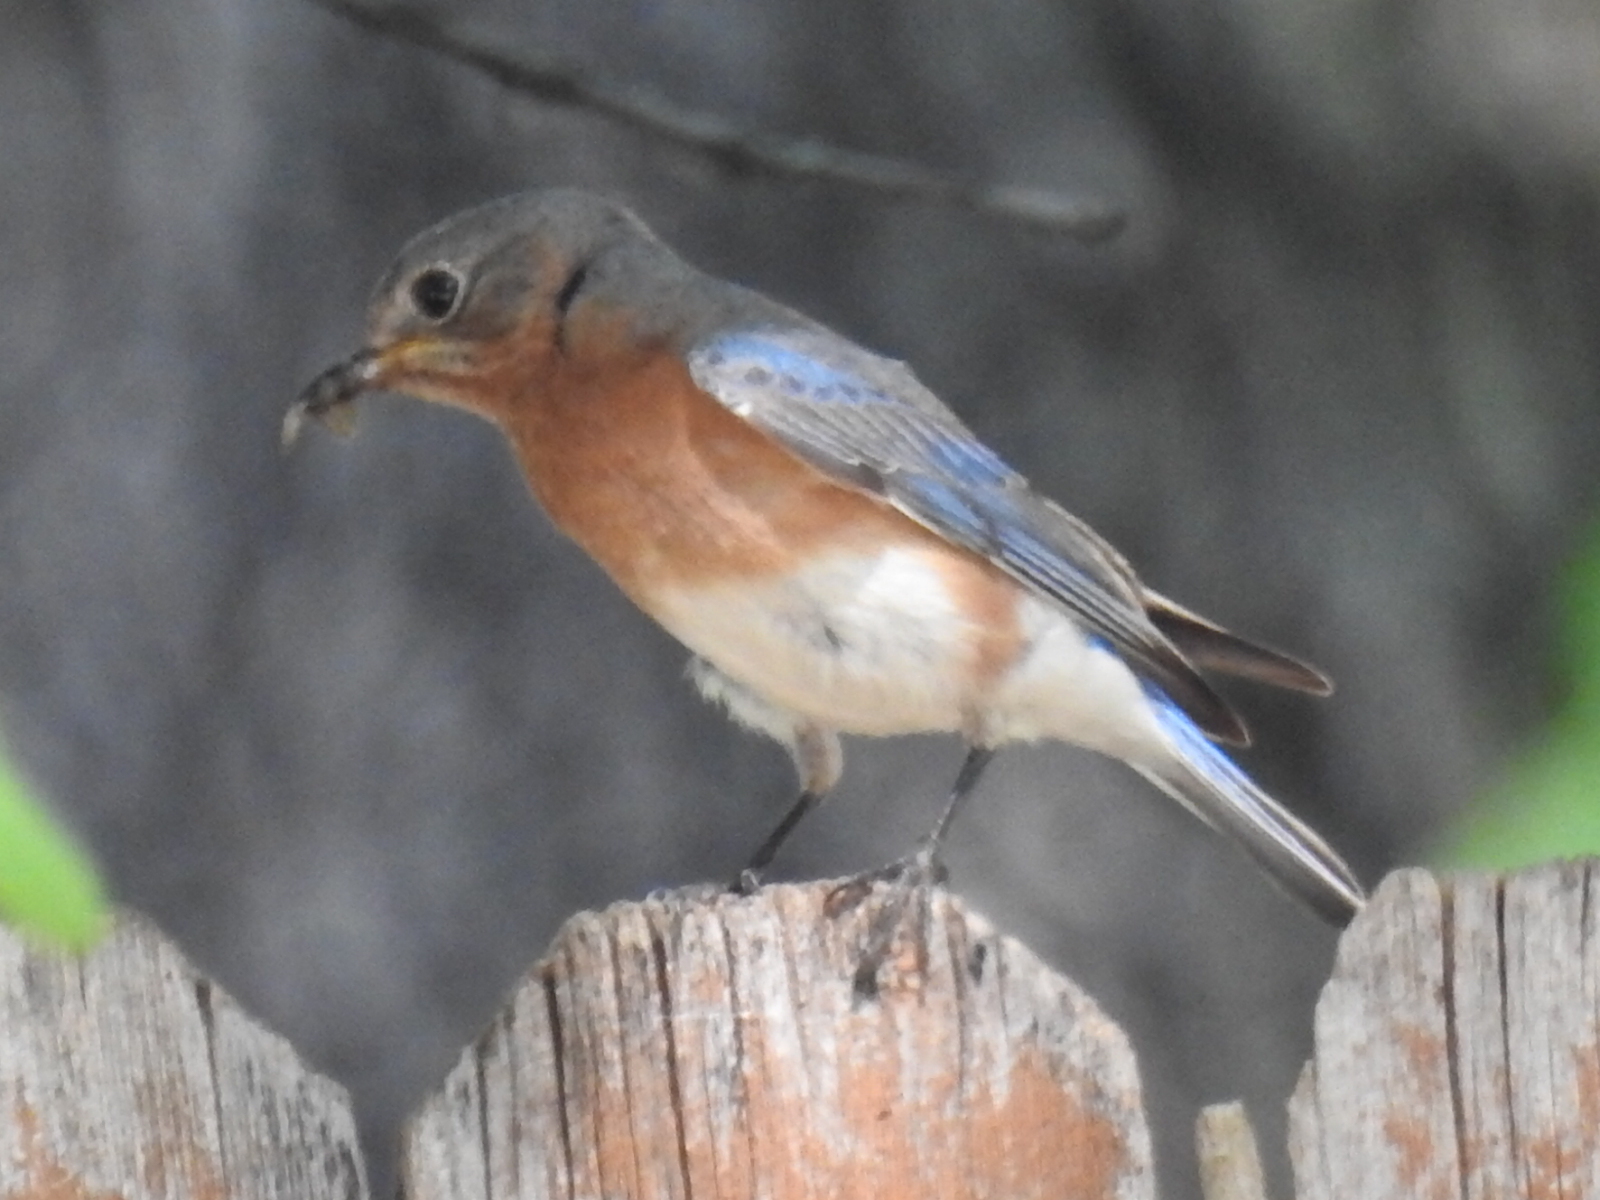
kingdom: Animalia
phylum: Chordata
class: Aves
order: Passeriformes
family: Turdidae
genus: Sialia
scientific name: Sialia sialis
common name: Eastern bluebird
